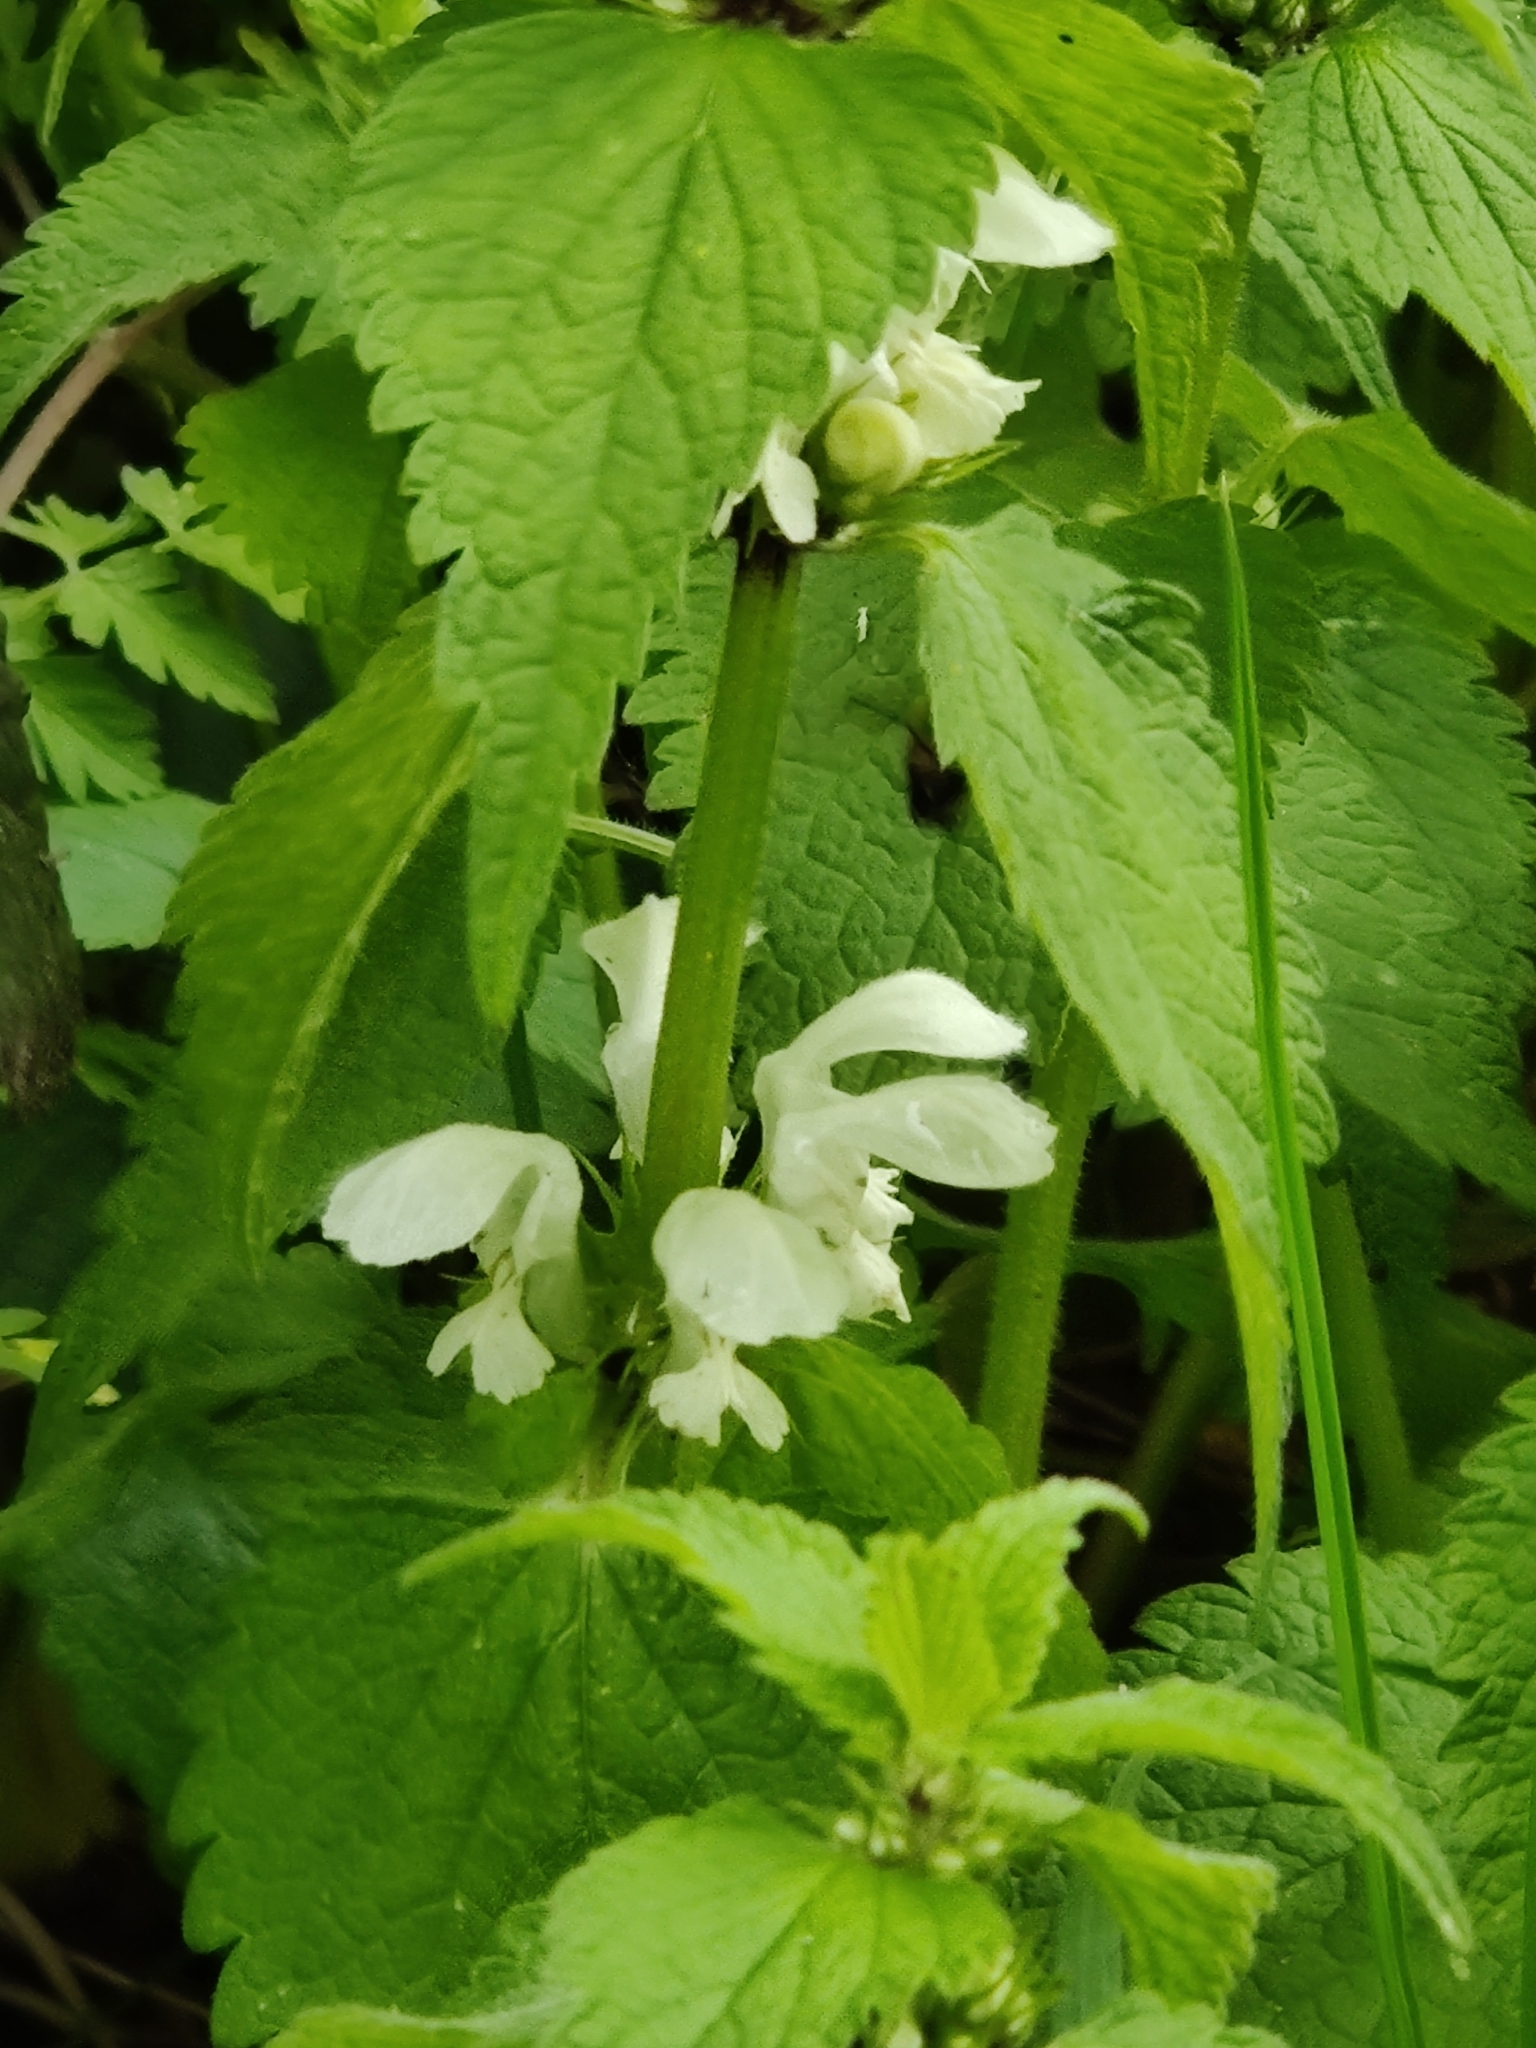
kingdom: Plantae
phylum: Tracheophyta
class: Magnoliopsida
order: Lamiales
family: Lamiaceae
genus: Lamium
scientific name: Lamium album
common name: White dead-nettle
